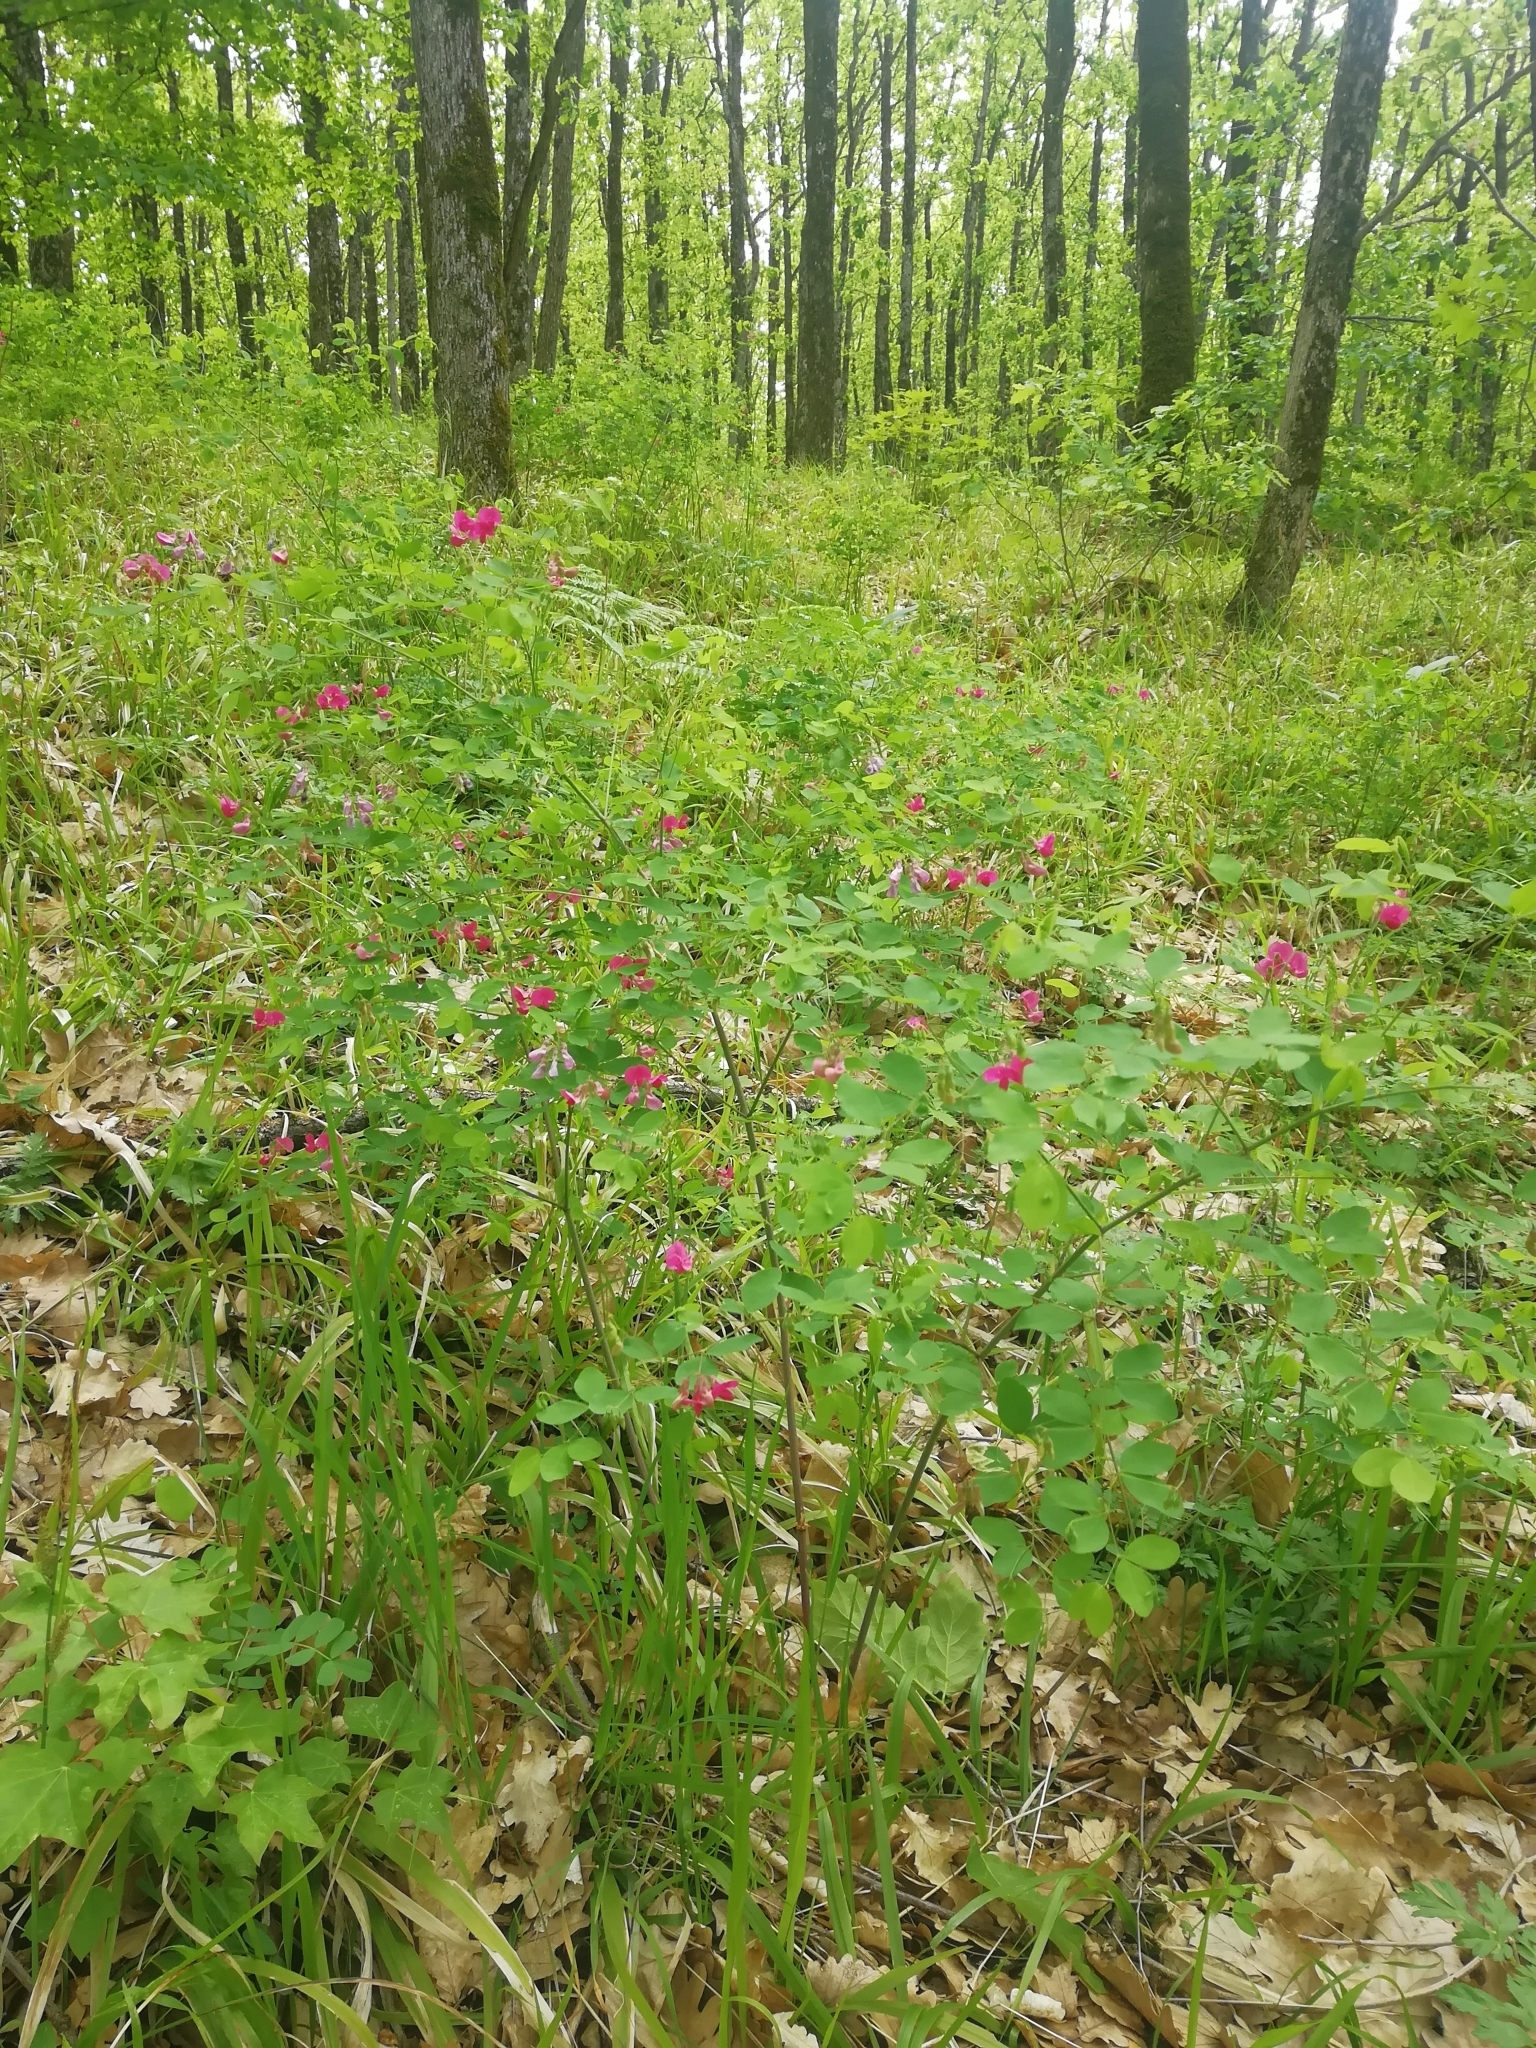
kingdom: Plantae
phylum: Tracheophyta
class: Magnoliopsida
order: Fabales
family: Fabaceae
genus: Lathyrus
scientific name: Lathyrus roseus
